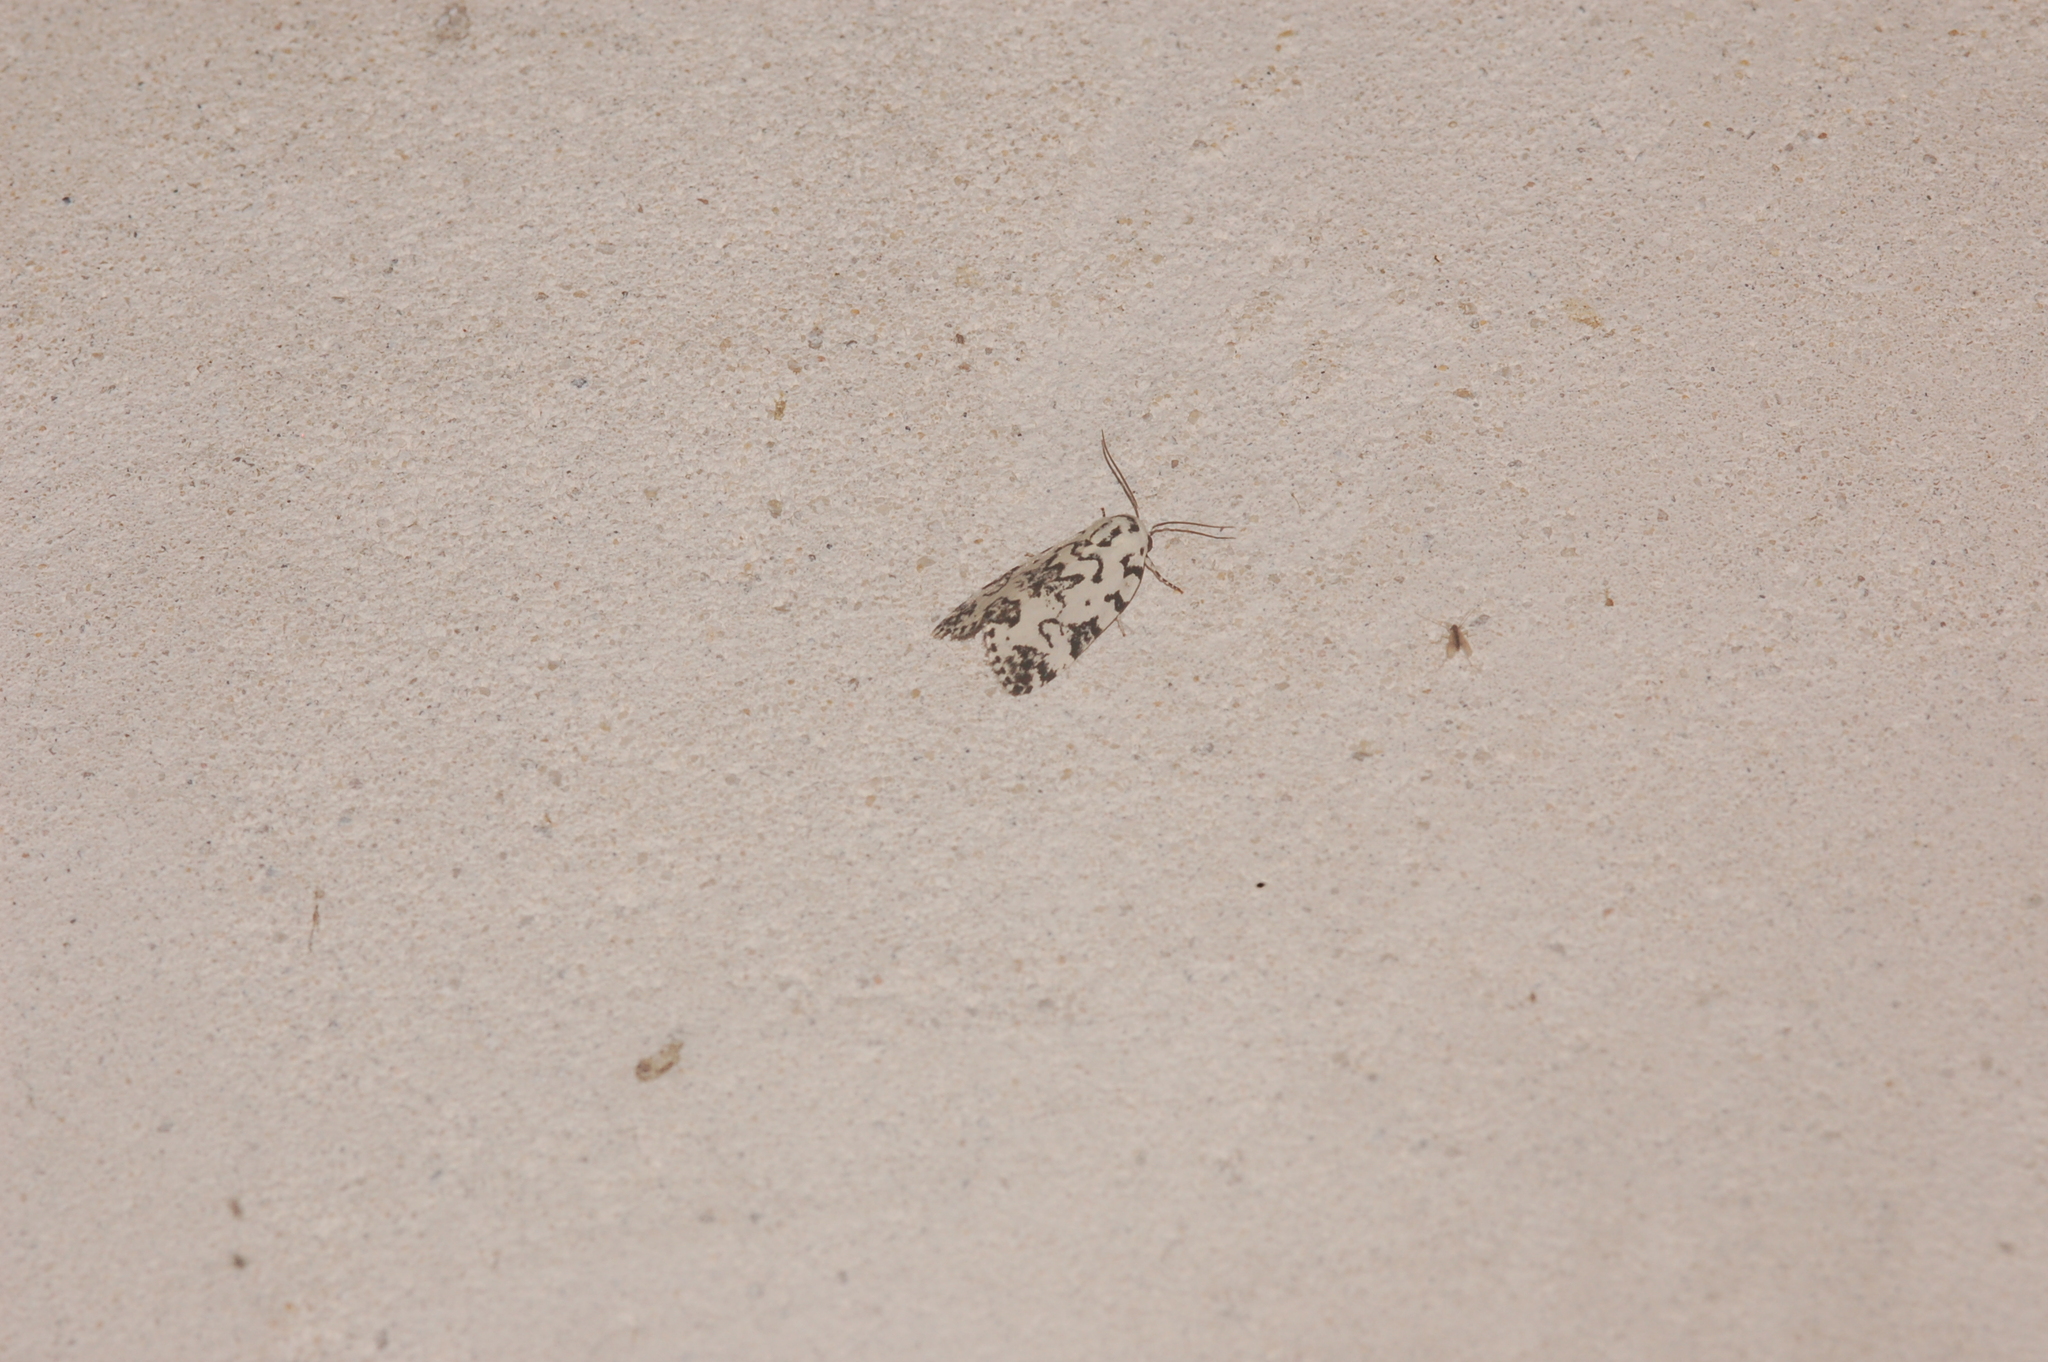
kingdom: Animalia
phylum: Arthropoda
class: Insecta
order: Lepidoptera
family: Noctuidae
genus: Polygrammate
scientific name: Polygrammate hebraeicum
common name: Hebrew moth
